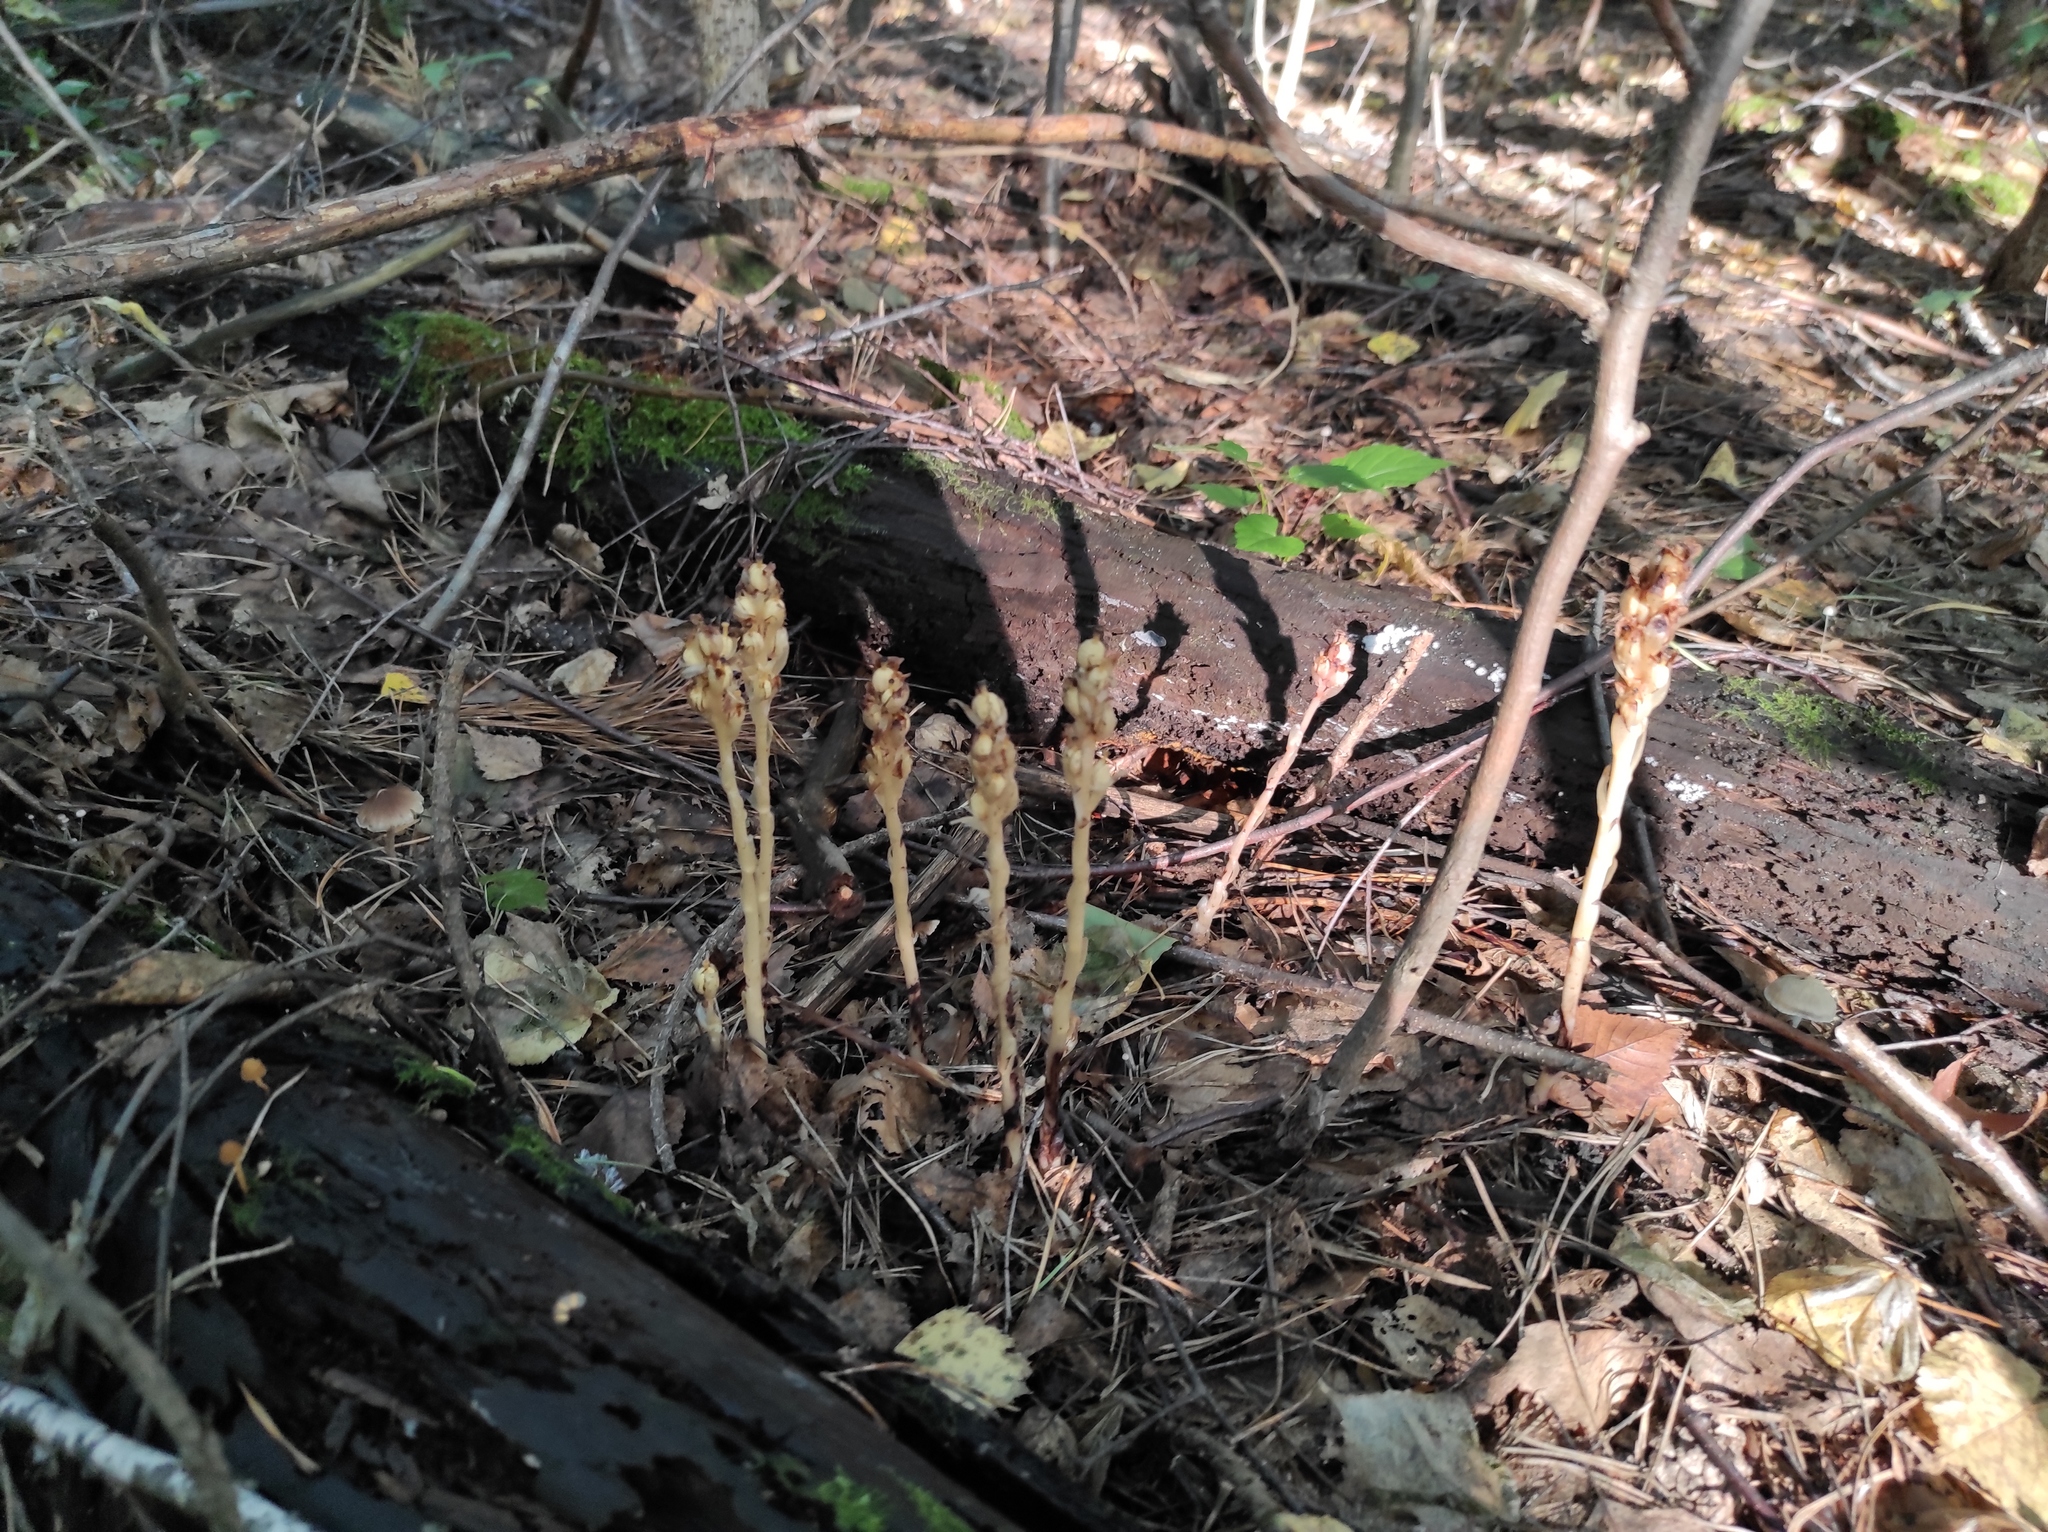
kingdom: Plantae
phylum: Tracheophyta
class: Magnoliopsida
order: Ericales
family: Ericaceae
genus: Hypopitys
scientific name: Hypopitys monotropa
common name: Yellow bird's-nest
